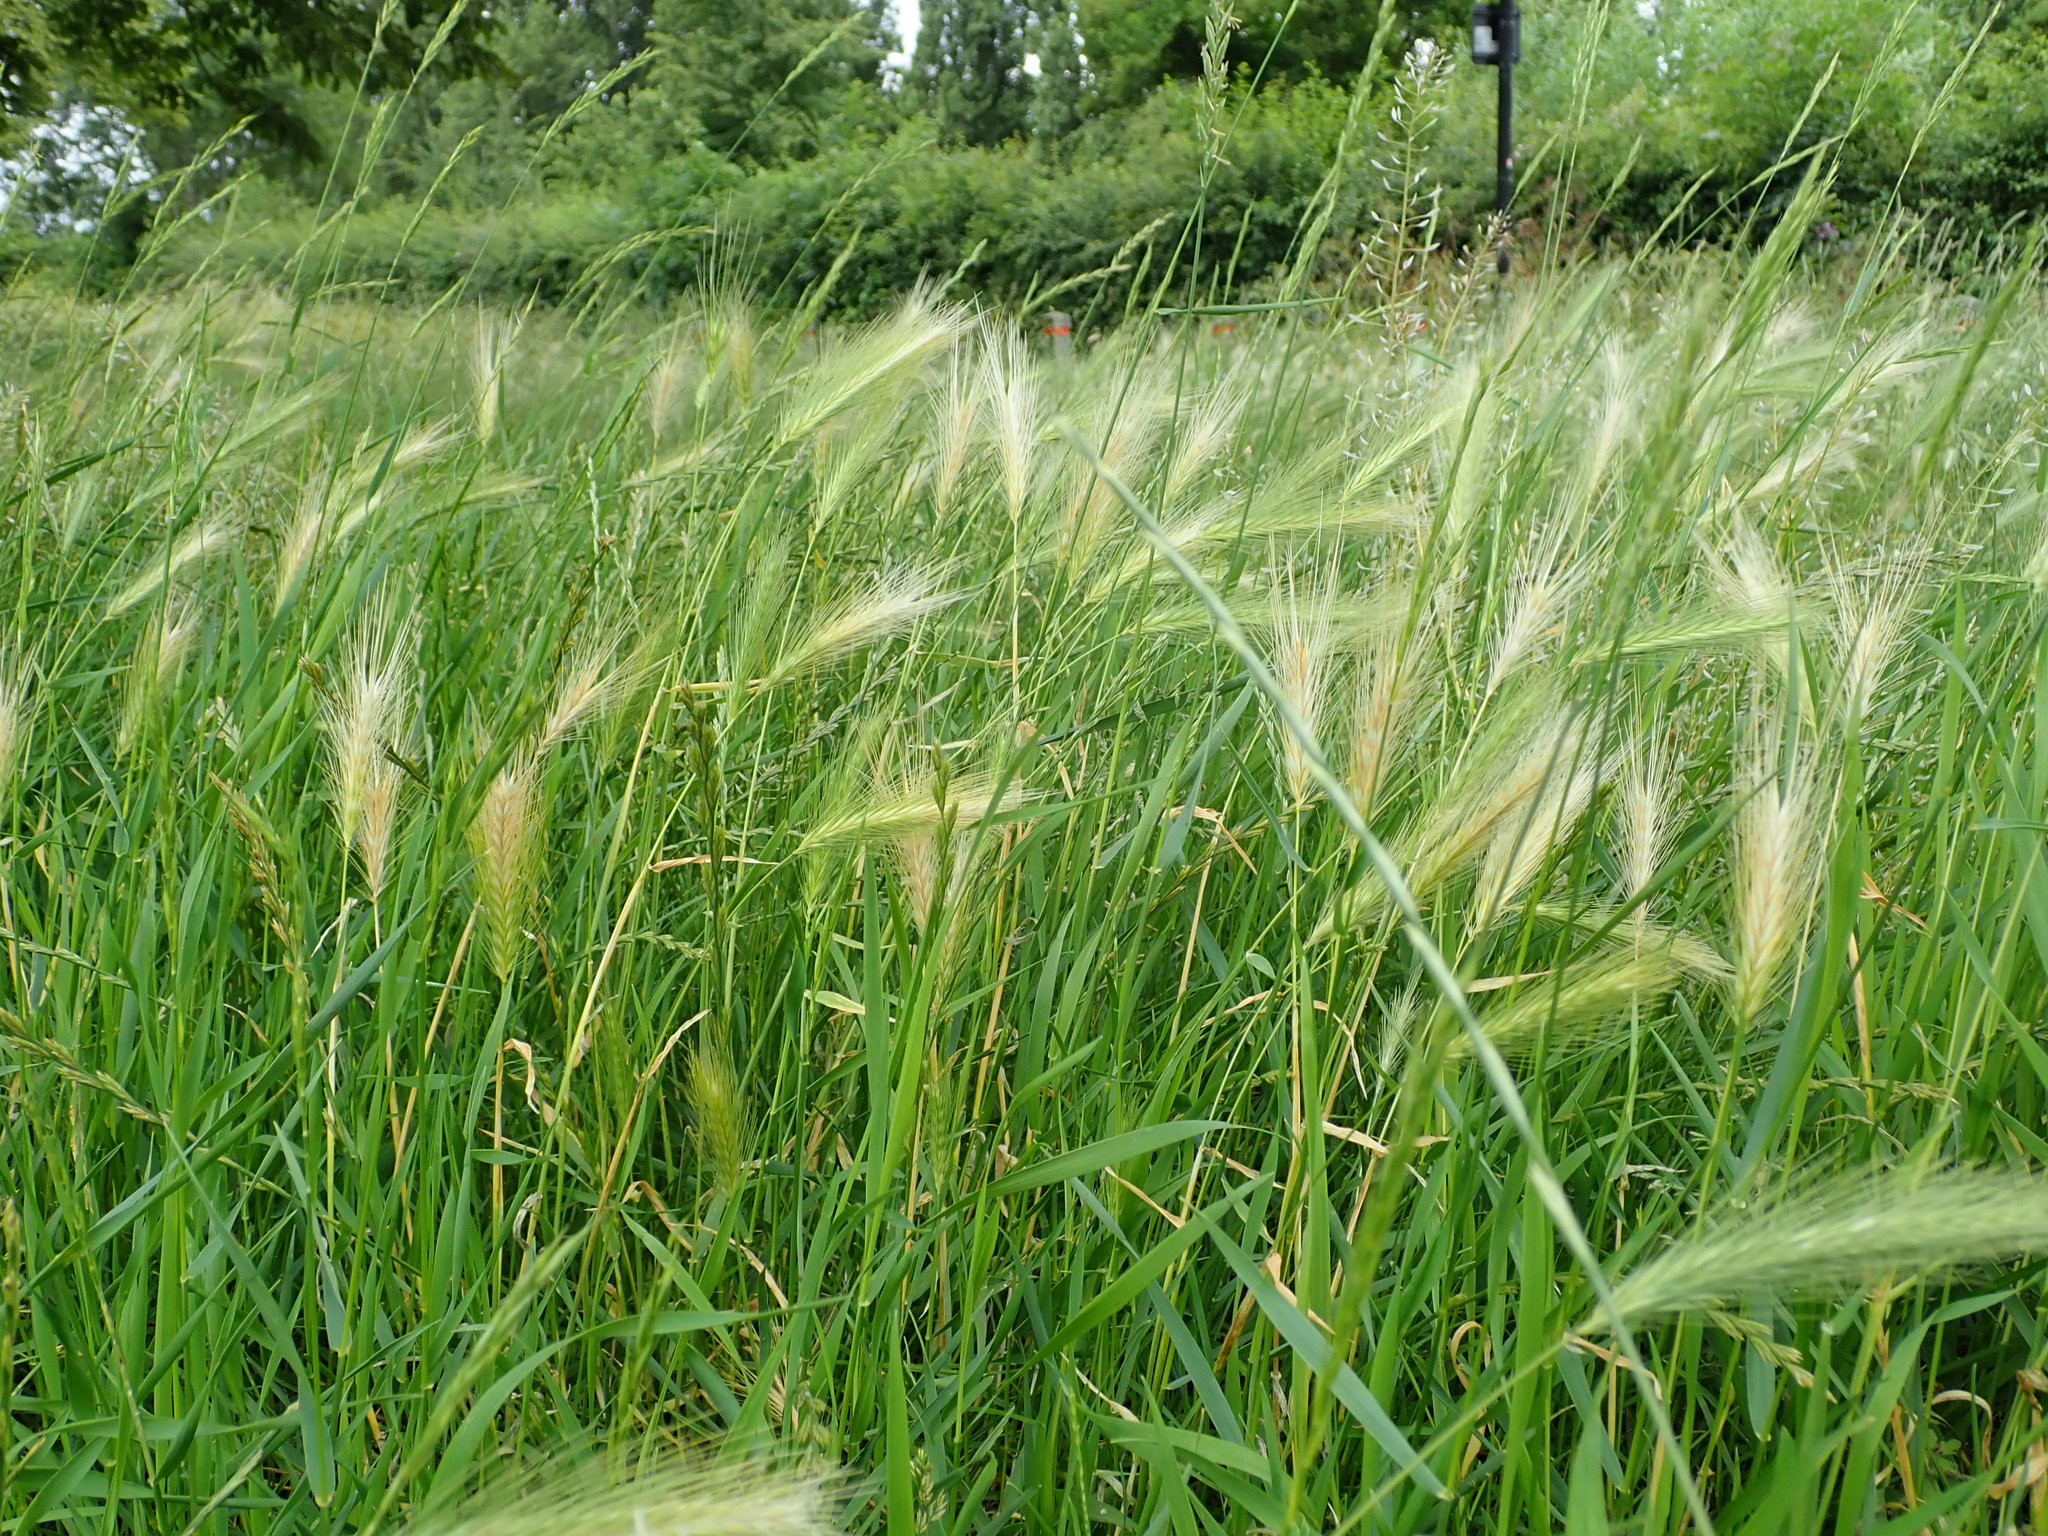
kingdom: Plantae
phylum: Tracheophyta
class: Liliopsida
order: Poales
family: Poaceae
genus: Hordeum
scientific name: Hordeum murinum
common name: Wall barley
